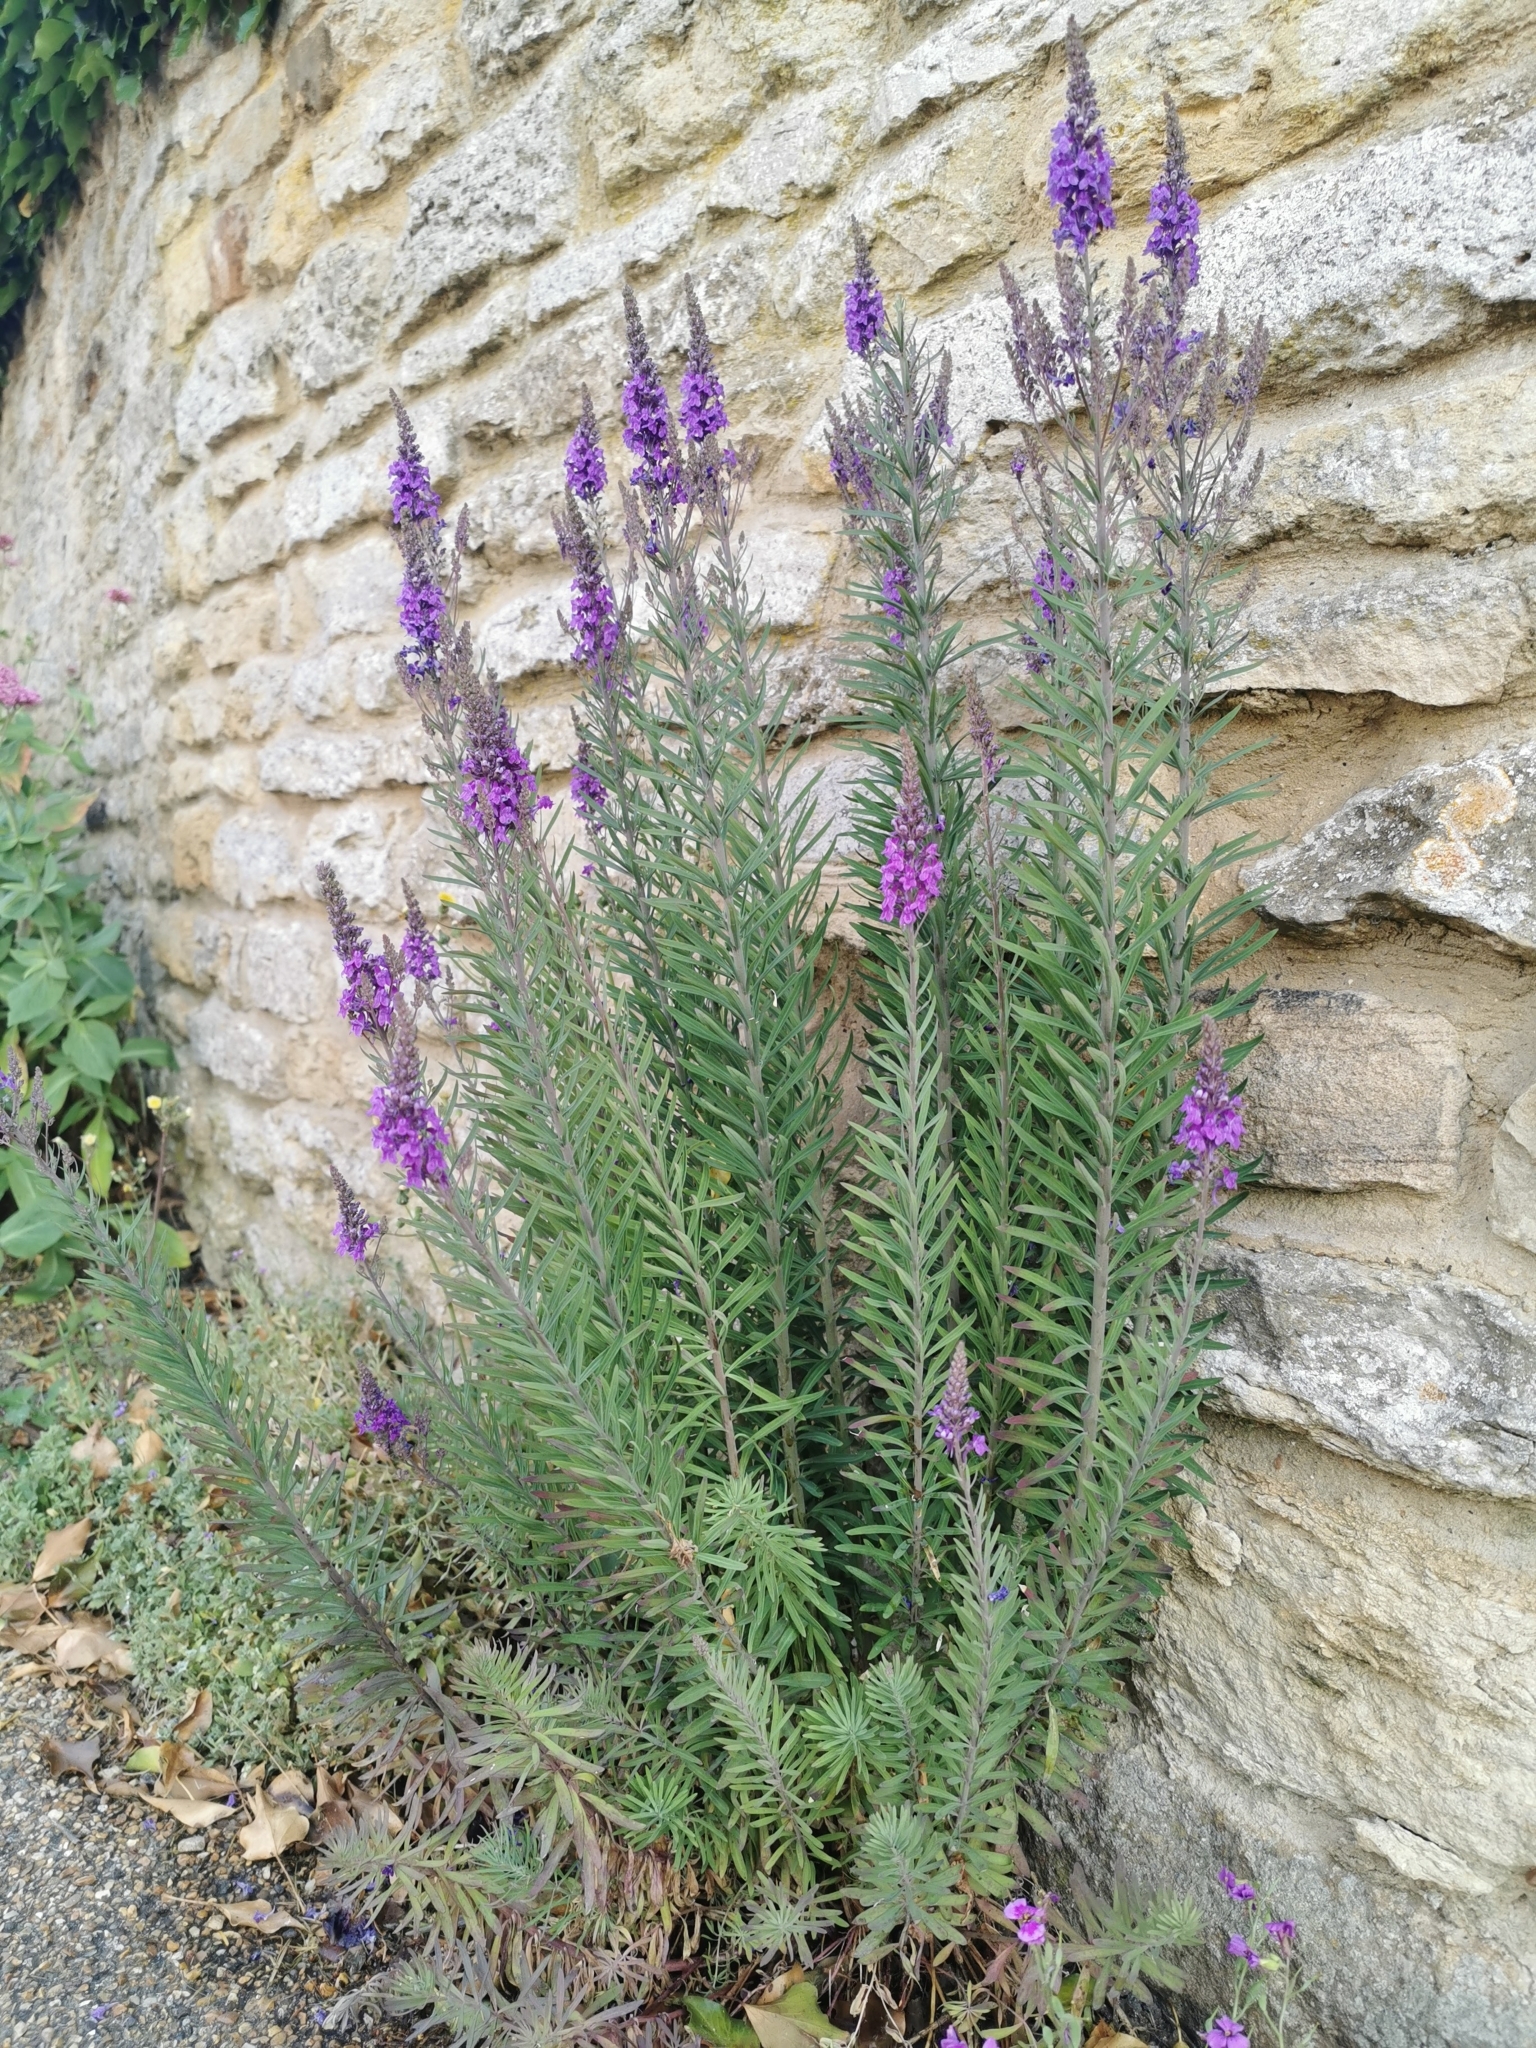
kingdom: Plantae
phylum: Tracheophyta
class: Magnoliopsida
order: Lamiales
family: Plantaginaceae
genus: Linaria
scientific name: Linaria purpurea
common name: Purple toadflax
